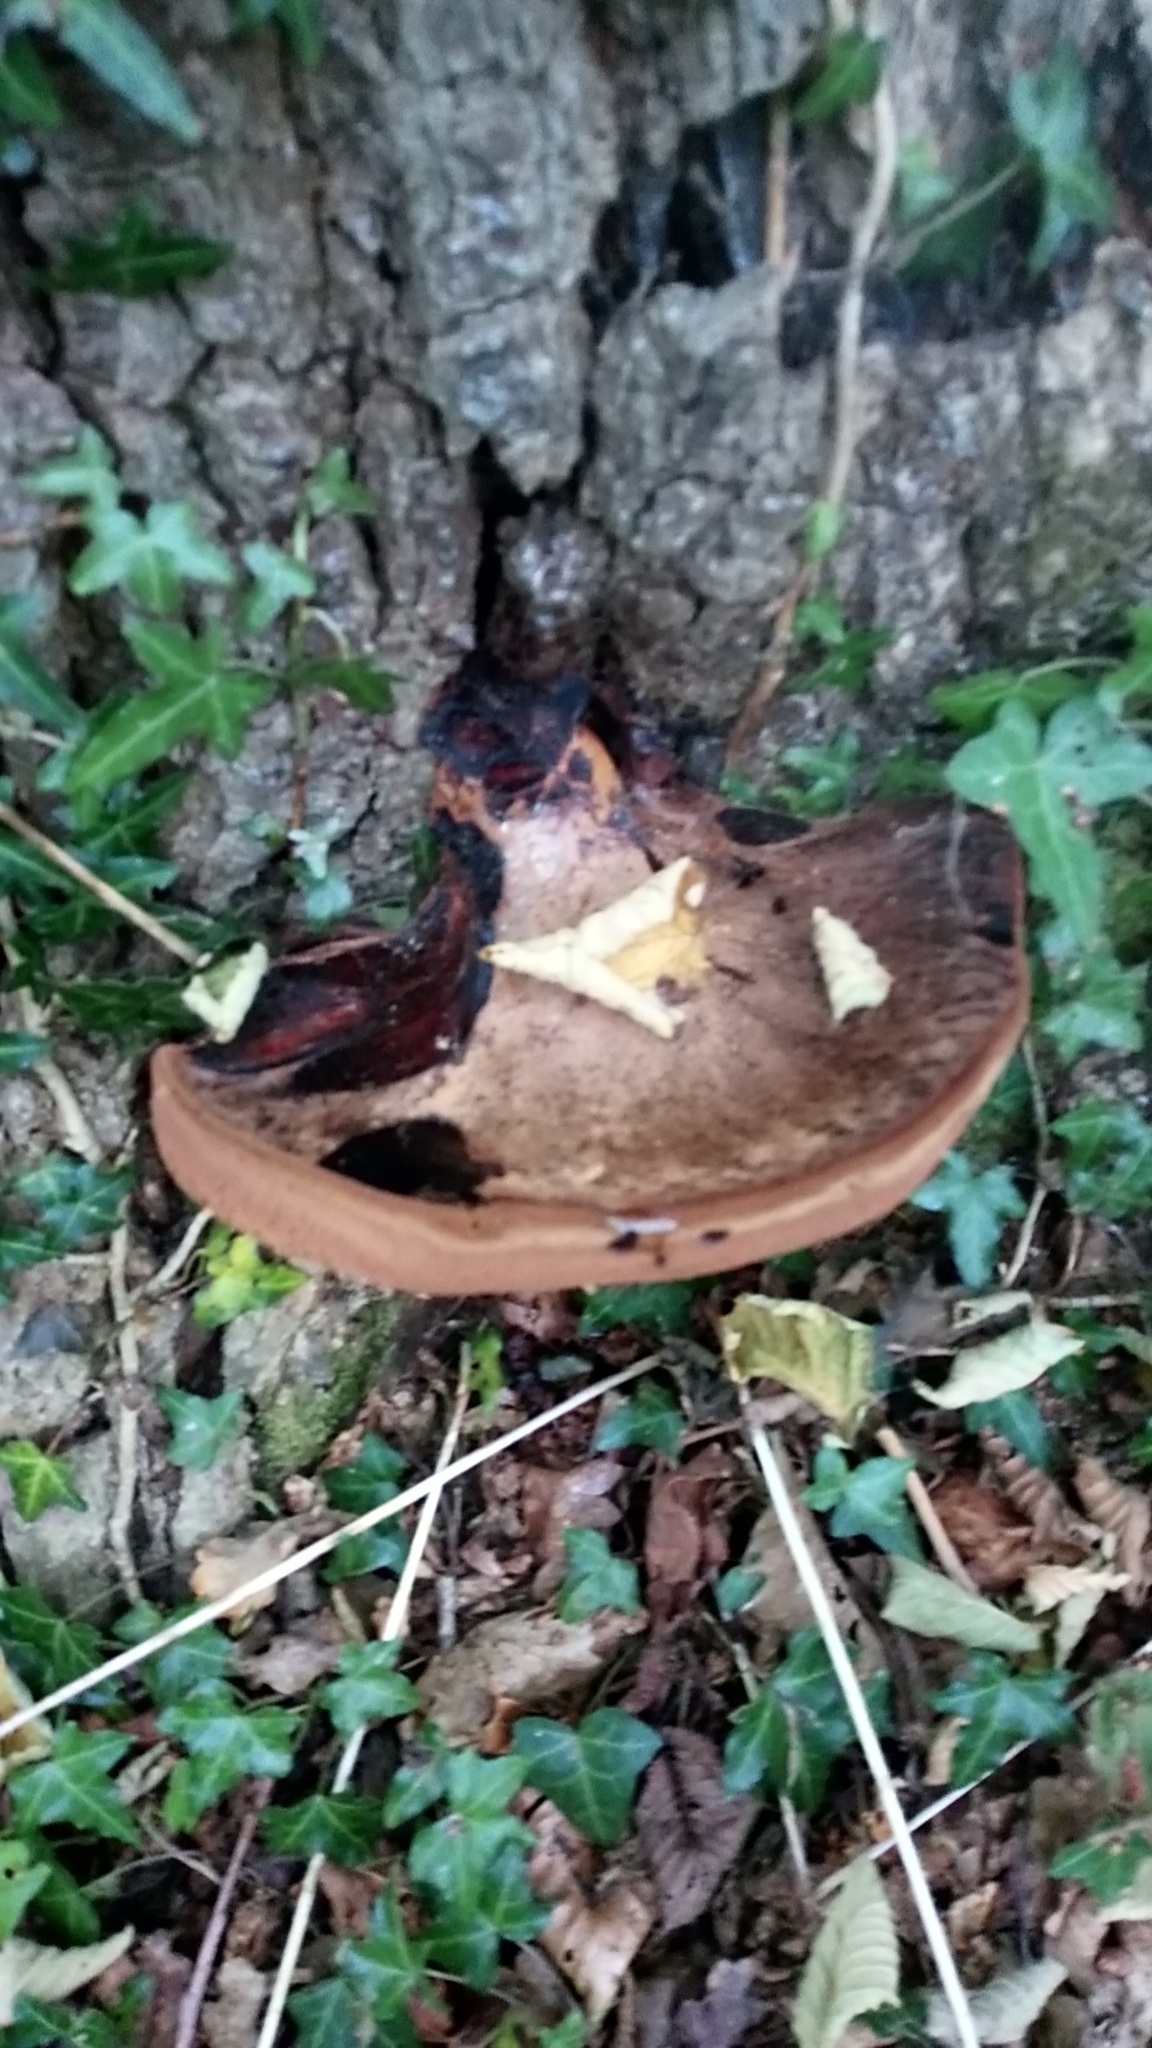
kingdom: Fungi
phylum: Basidiomycota
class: Agaricomycetes
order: Agaricales
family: Fistulinaceae
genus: Fistulina
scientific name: Fistulina hepatica
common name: Beef-steak fungus
